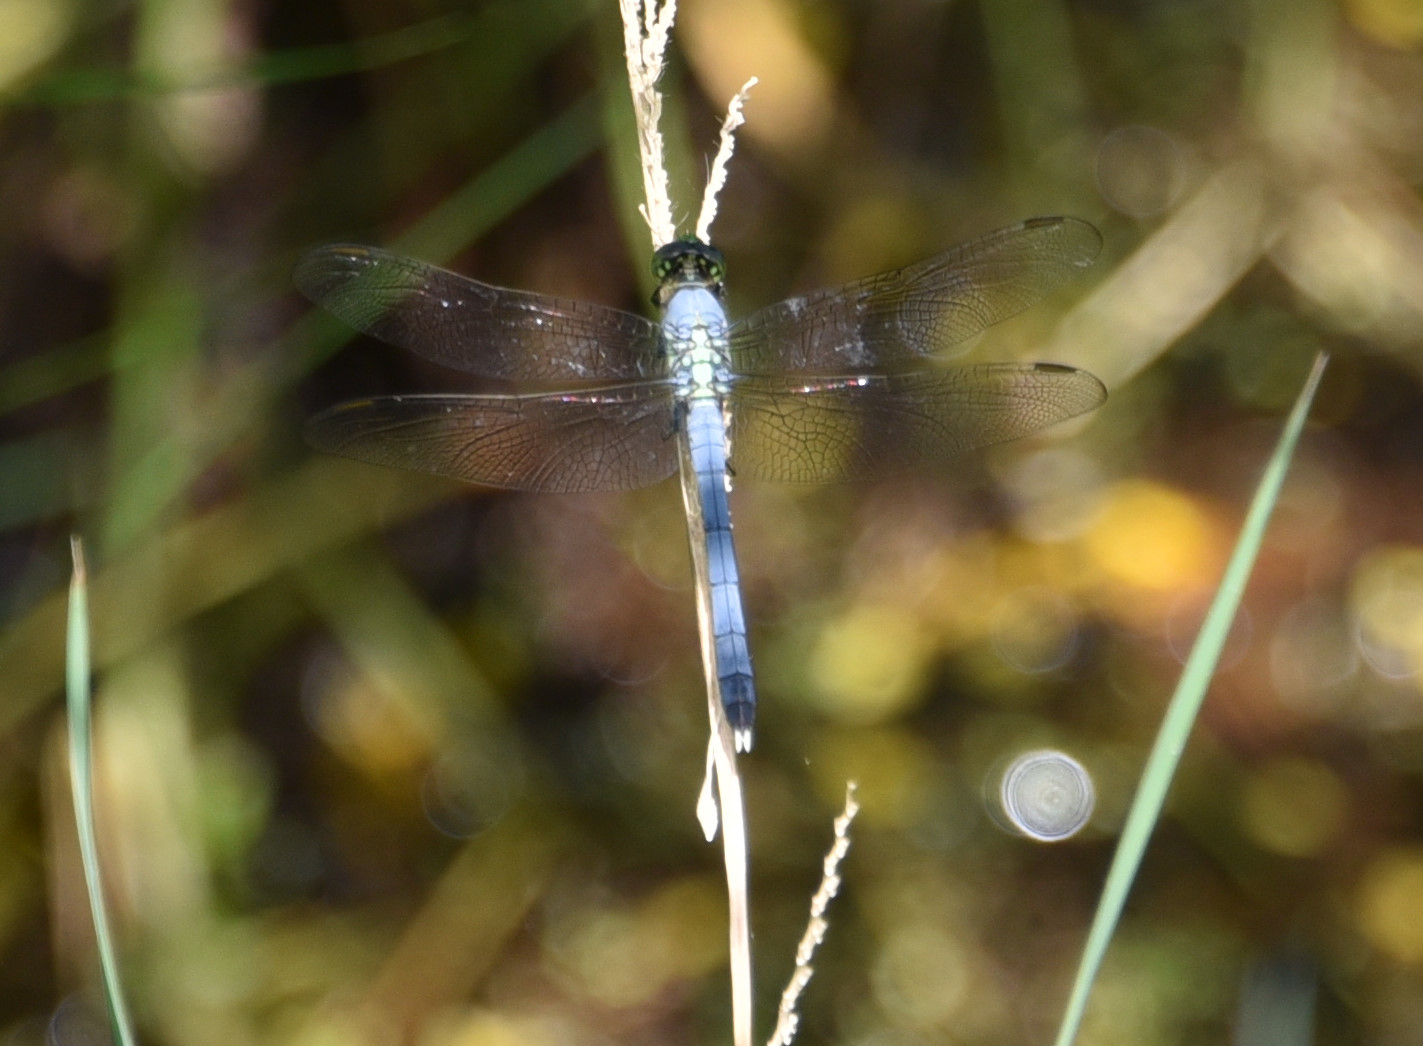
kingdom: Animalia
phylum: Arthropoda
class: Insecta
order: Odonata
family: Libellulidae
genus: Erythemis
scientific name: Erythemis simplicicollis
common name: Eastern pondhawk
